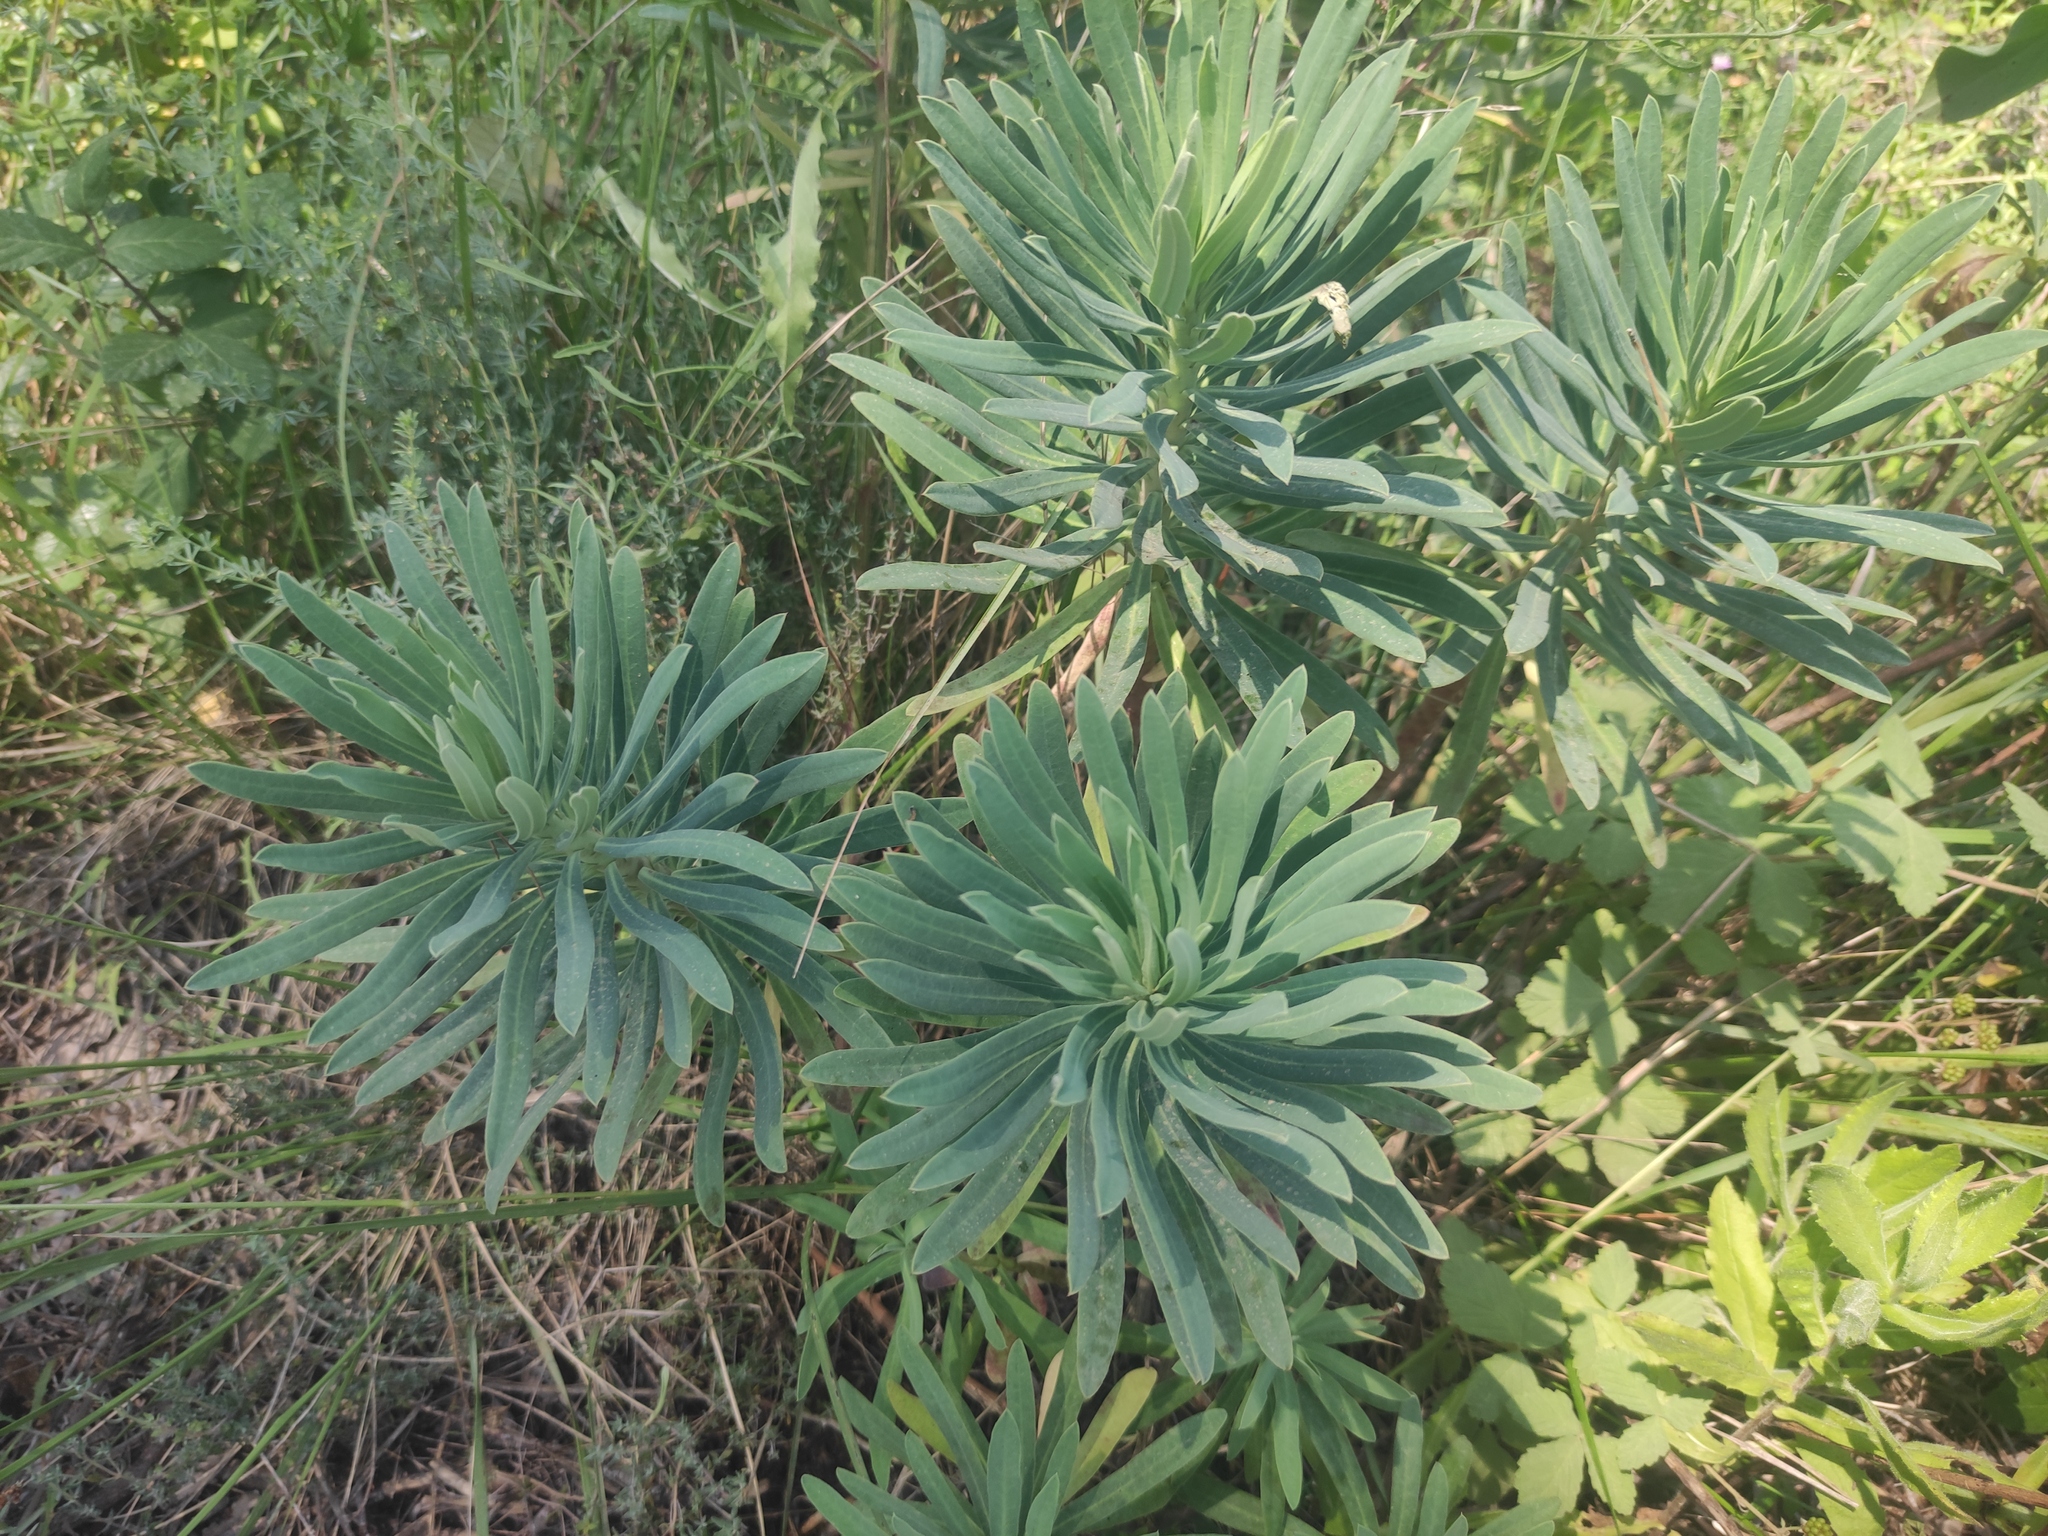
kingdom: Plantae
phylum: Tracheophyta
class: Magnoliopsida
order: Malpighiales
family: Euphorbiaceae
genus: Euphorbia
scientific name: Euphorbia characias
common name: Mediterranean spurge
